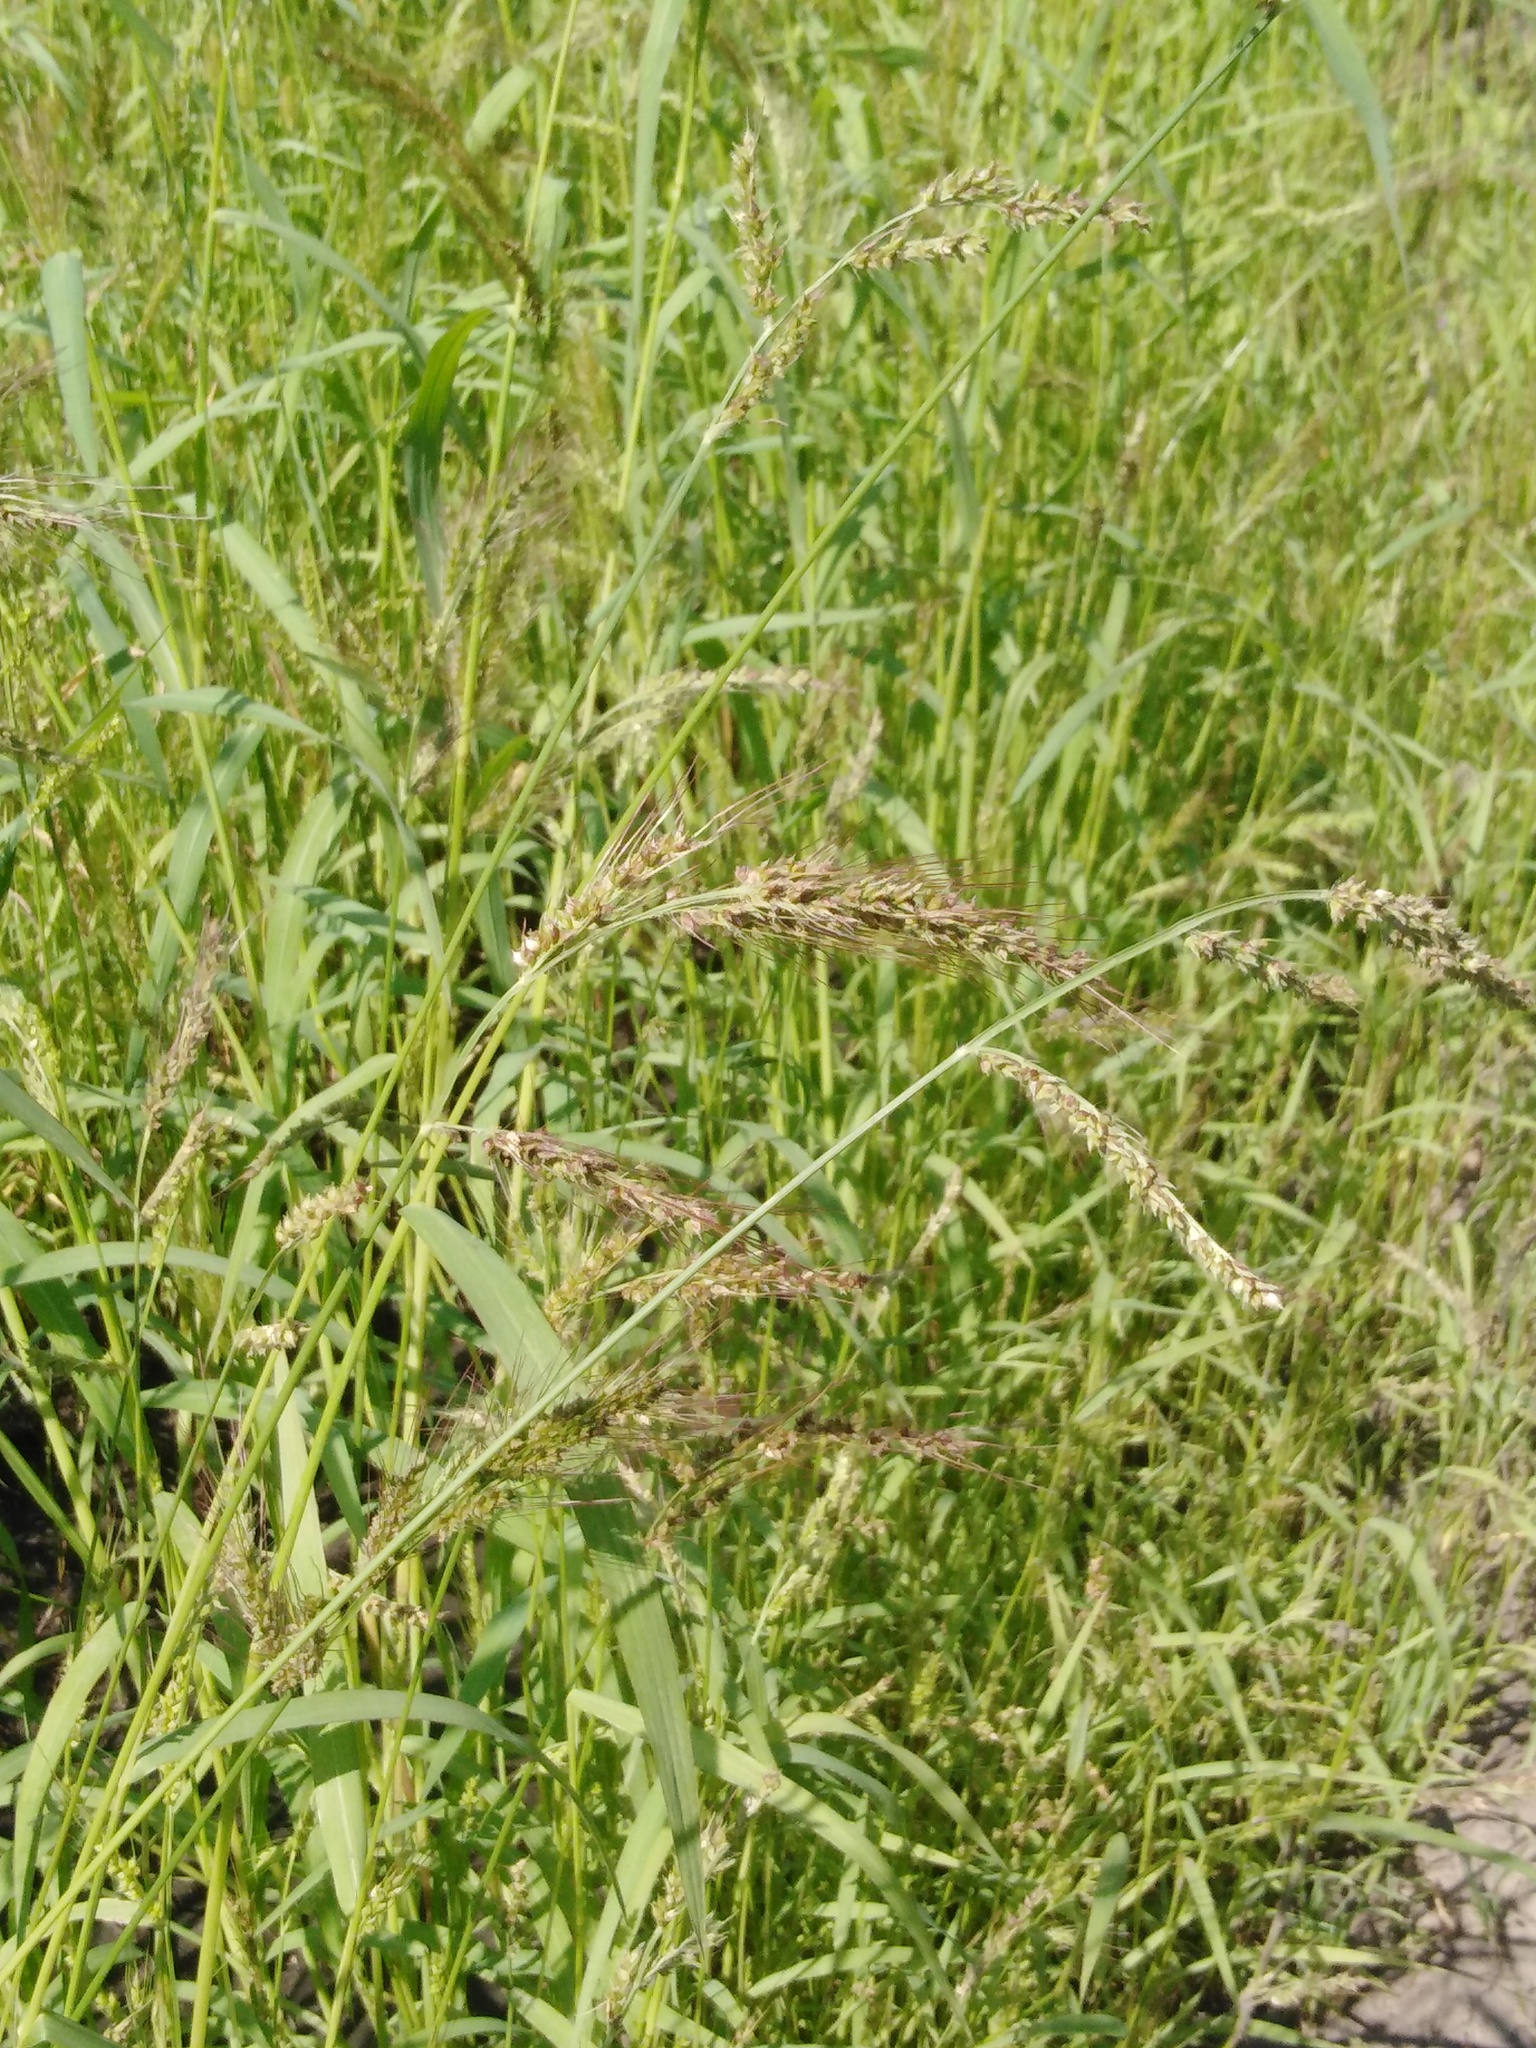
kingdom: Plantae
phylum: Tracheophyta
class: Liliopsida
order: Poales
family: Poaceae
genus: Echinochloa
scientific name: Echinochloa crus-galli
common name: Cockspur
